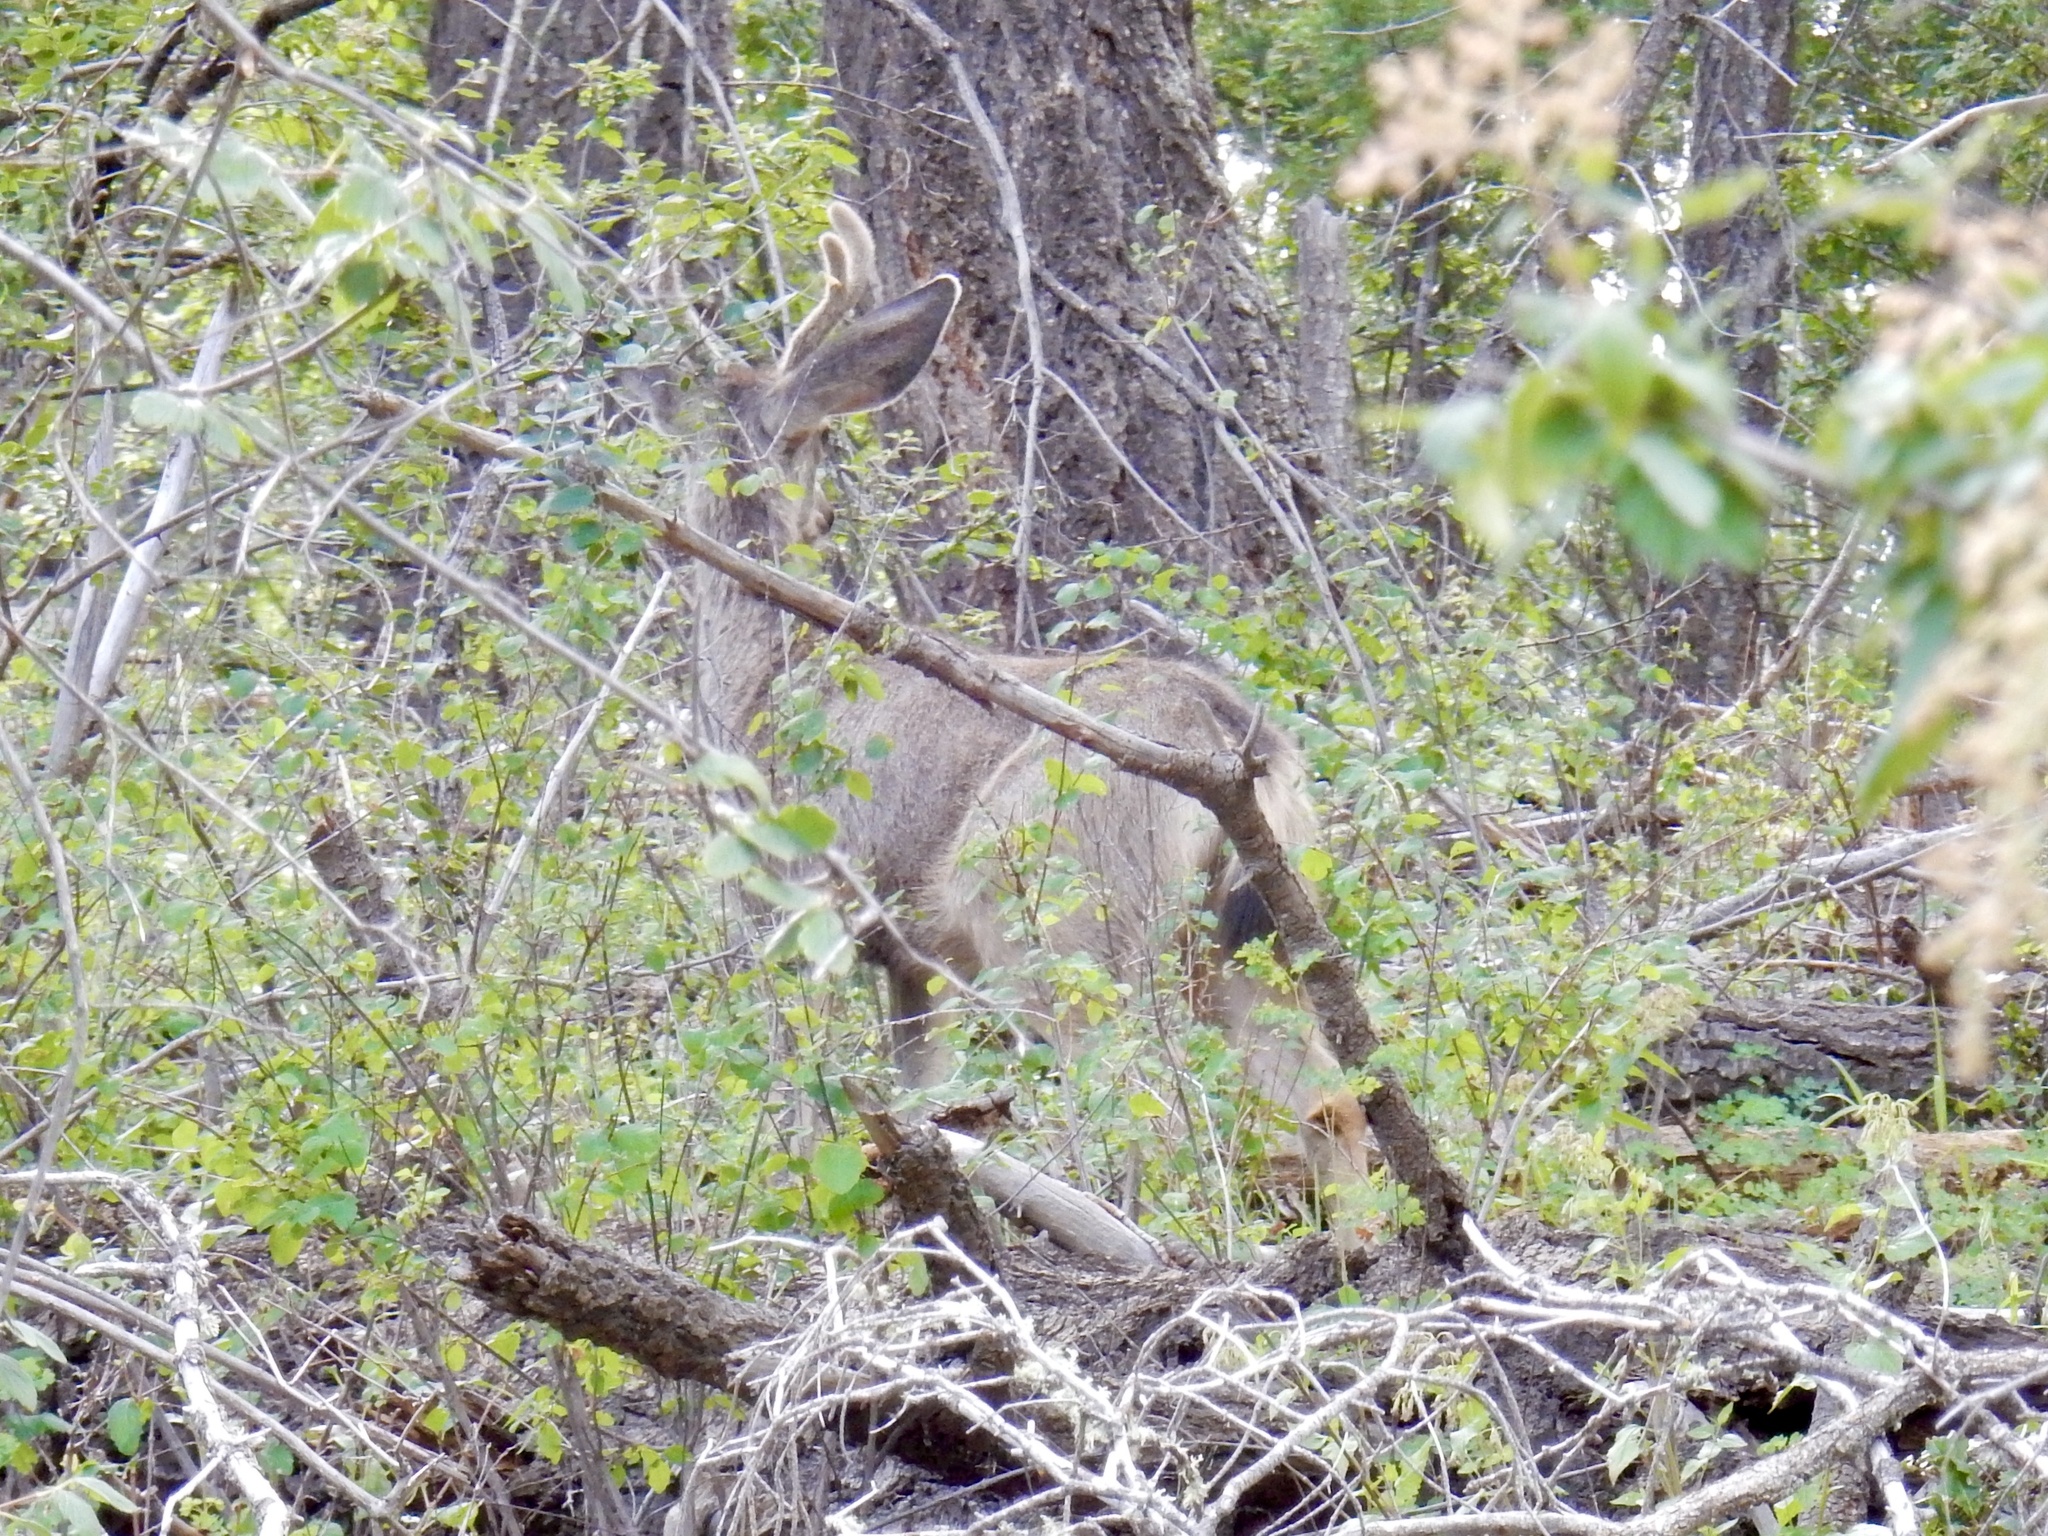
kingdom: Animalia
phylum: Chordata
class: Mammalia
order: Artiodactyla
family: Cervidae
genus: Odocoileus
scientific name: Odocoileus hemionus
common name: Mule deer
